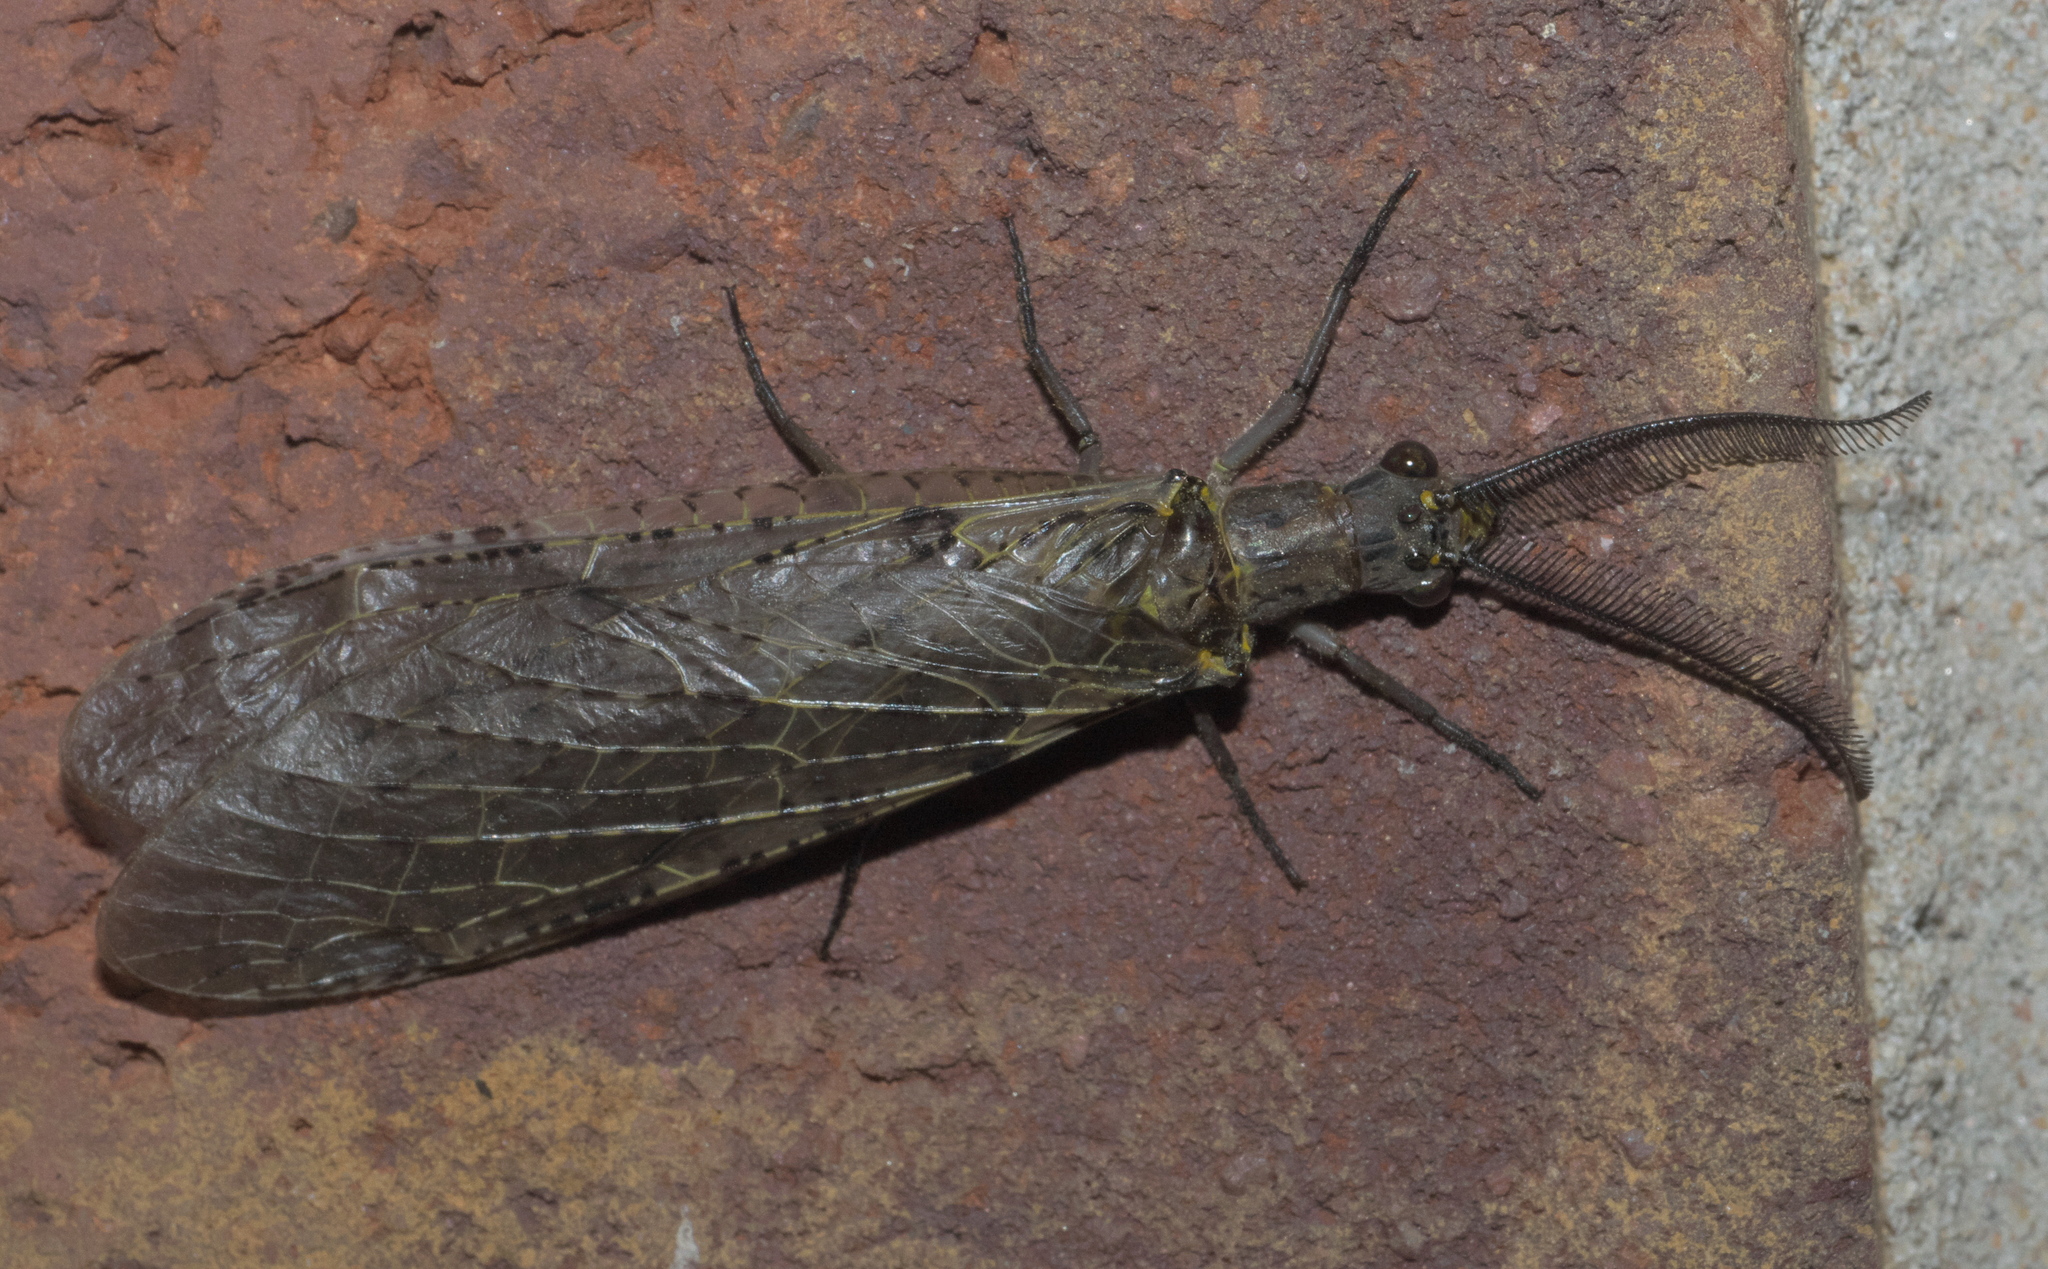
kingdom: Animalia
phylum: Arthropoda
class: Insecta
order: Megaloptera
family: Corydalidae
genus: Chauliodes
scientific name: Chauliodes rastricornis
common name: Spring fishfly
